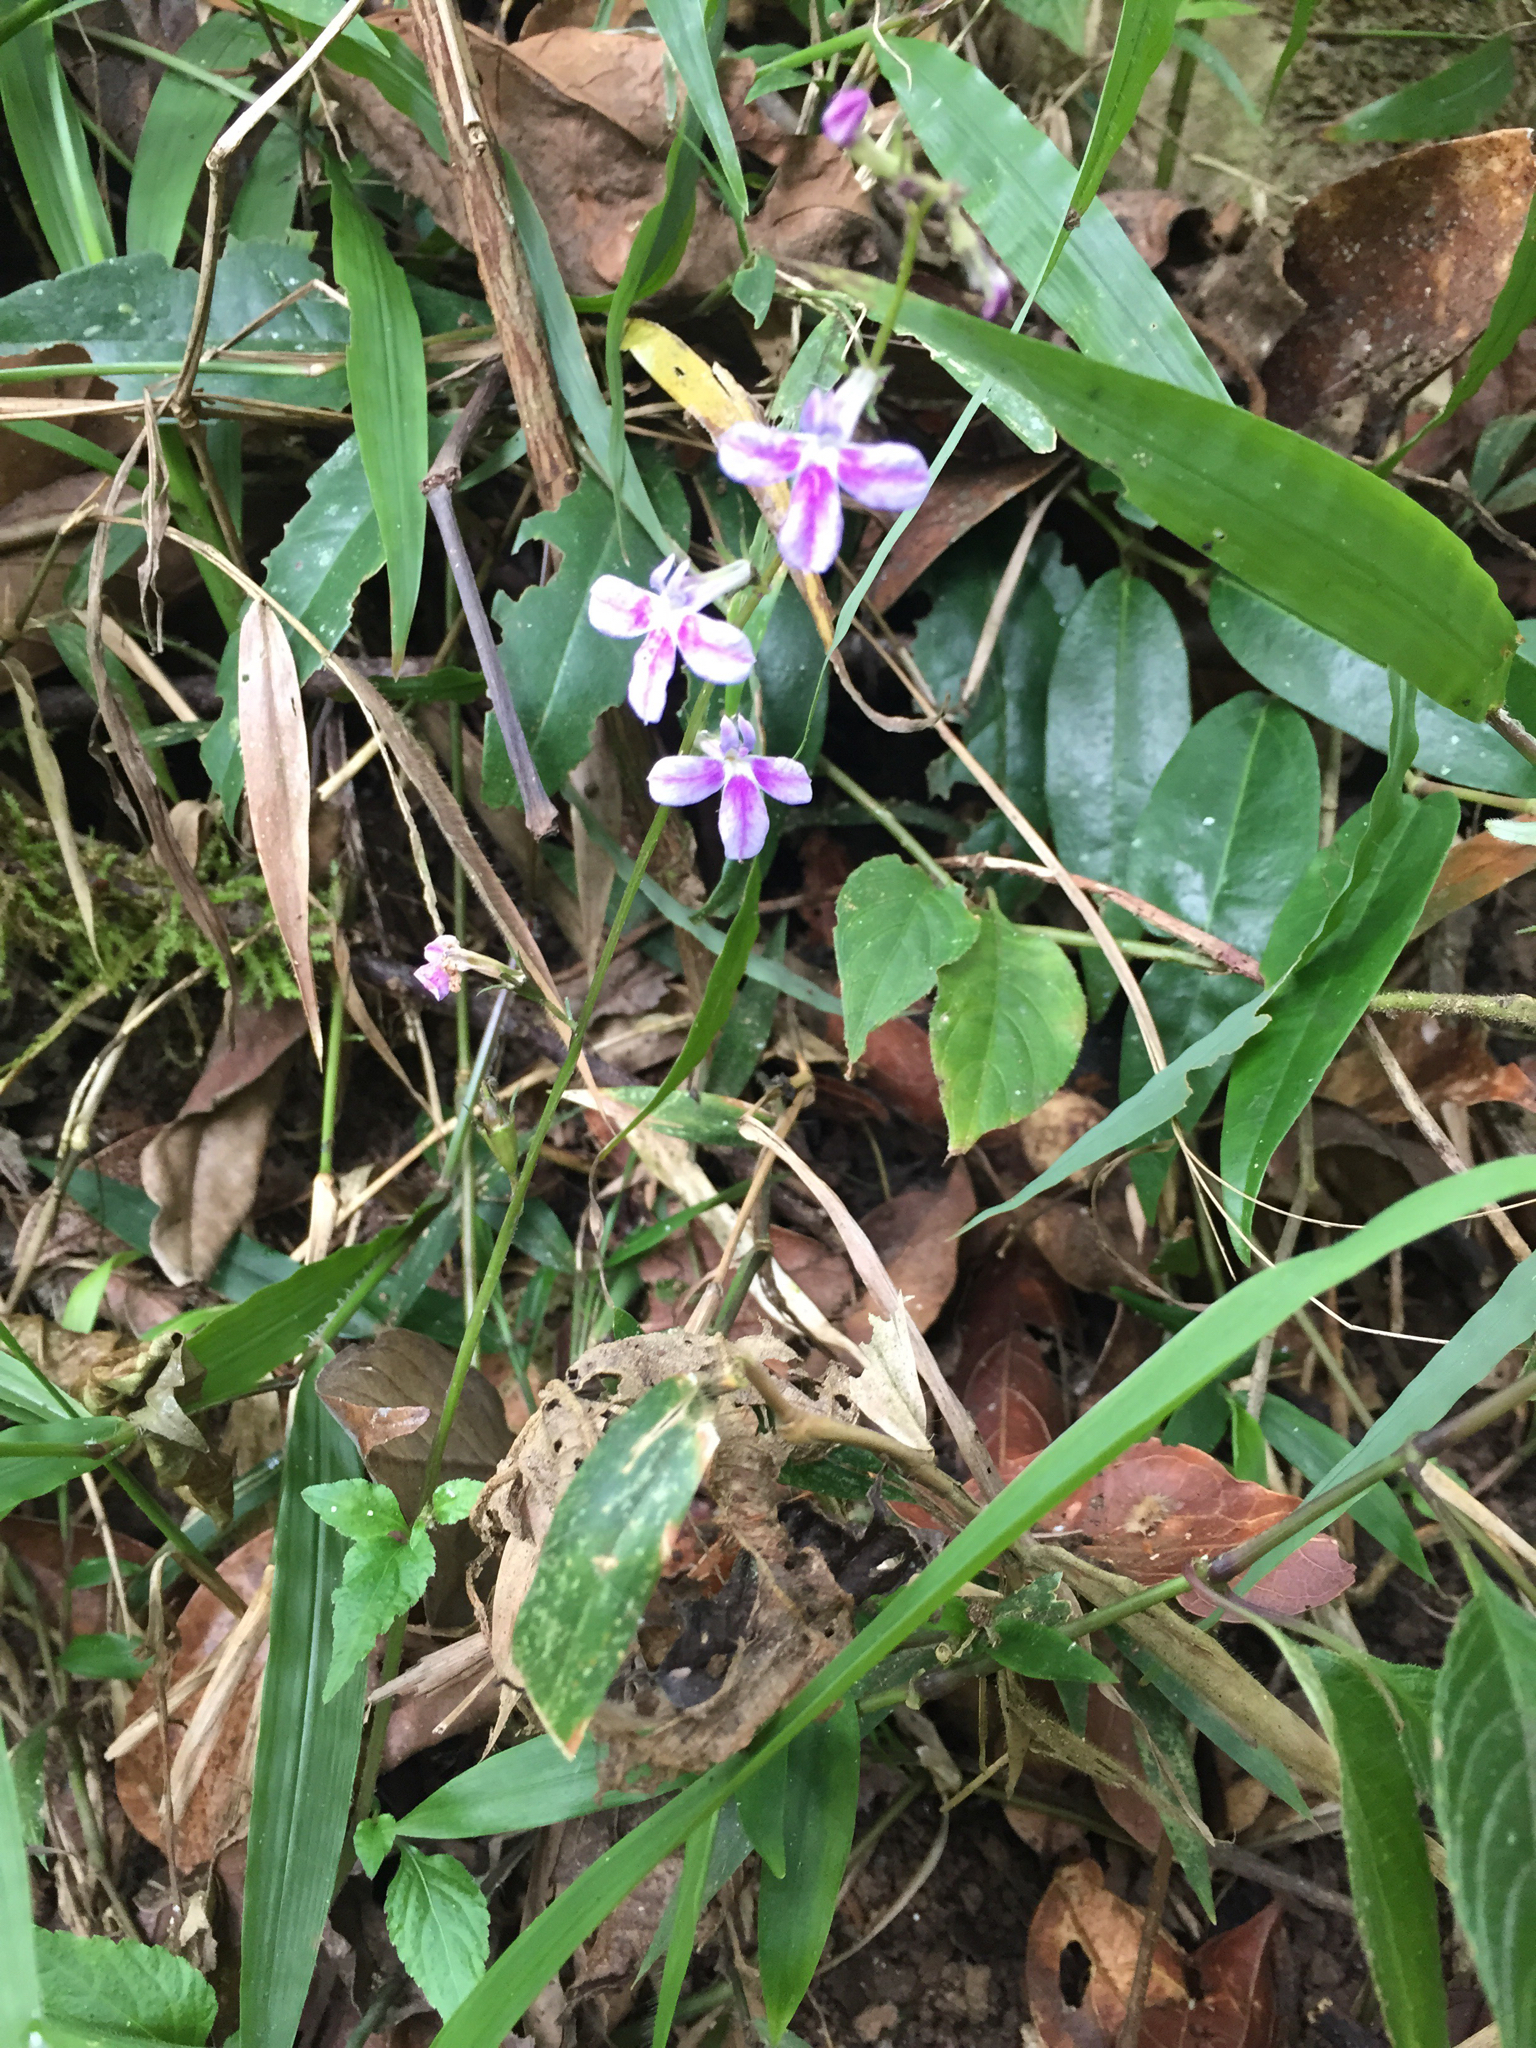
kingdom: Plantae
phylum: Tracheophyta
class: Magnoliopsida
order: Asterales
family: Campanulaceae
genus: Lobelia
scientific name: Lobelia hartlaubii
